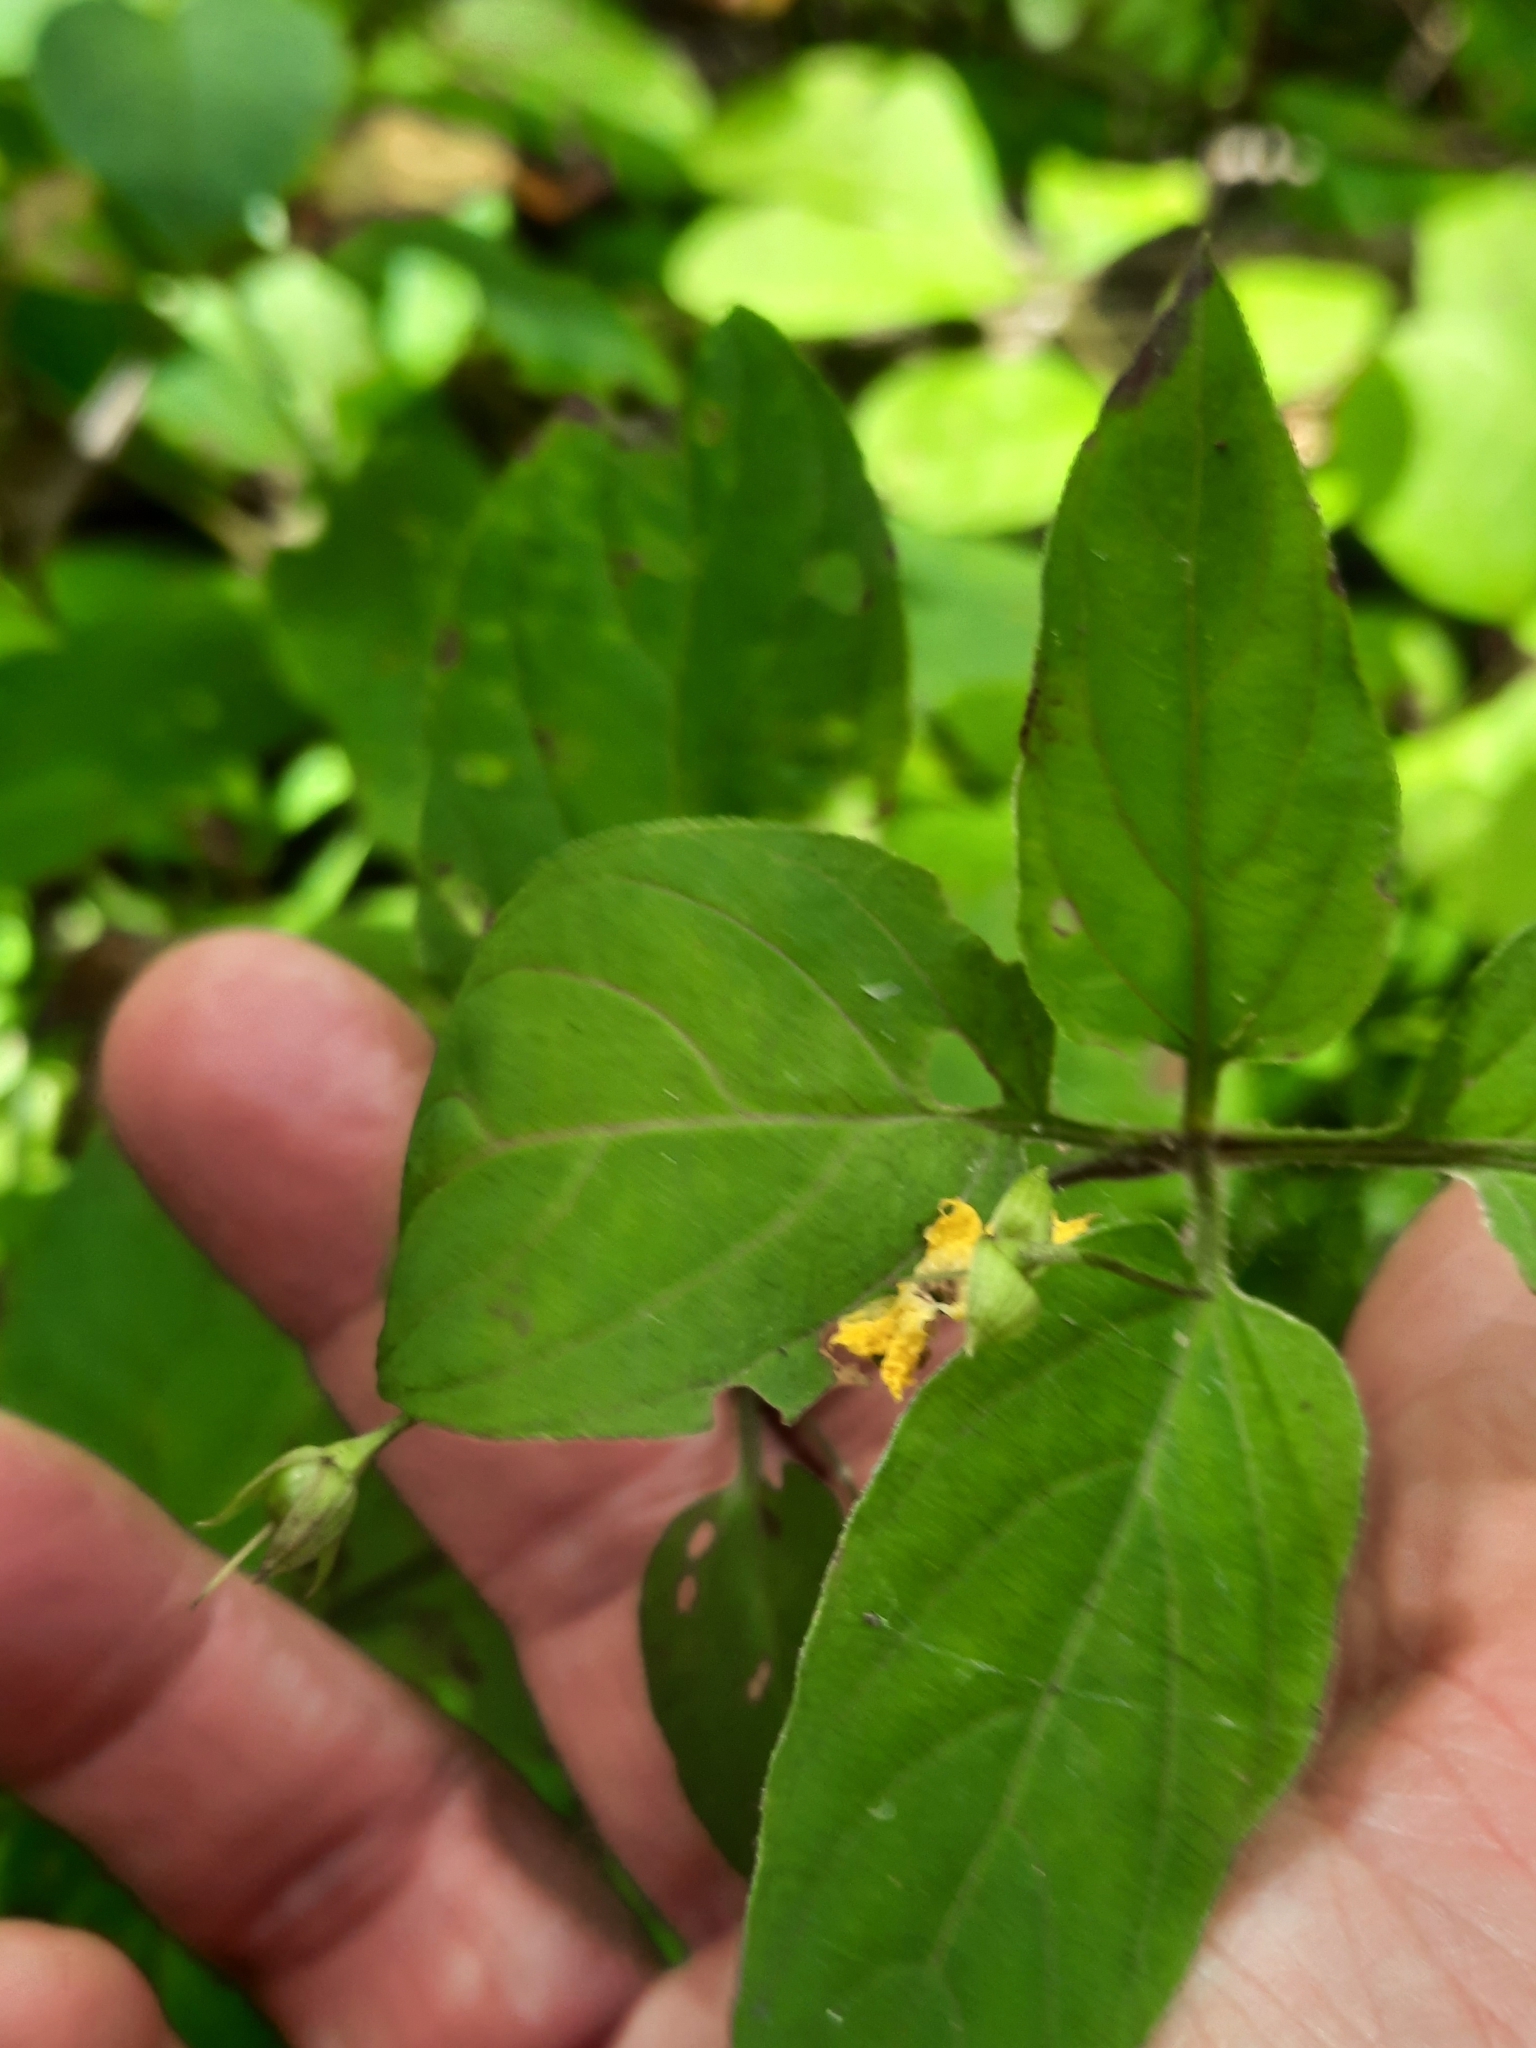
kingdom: Plantae
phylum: Tracheophyta
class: Magnoliopsida
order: Ericales
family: Primulaceae
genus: Lysimachia
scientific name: Lysimachia ciliata
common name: Fringed loosestrife
